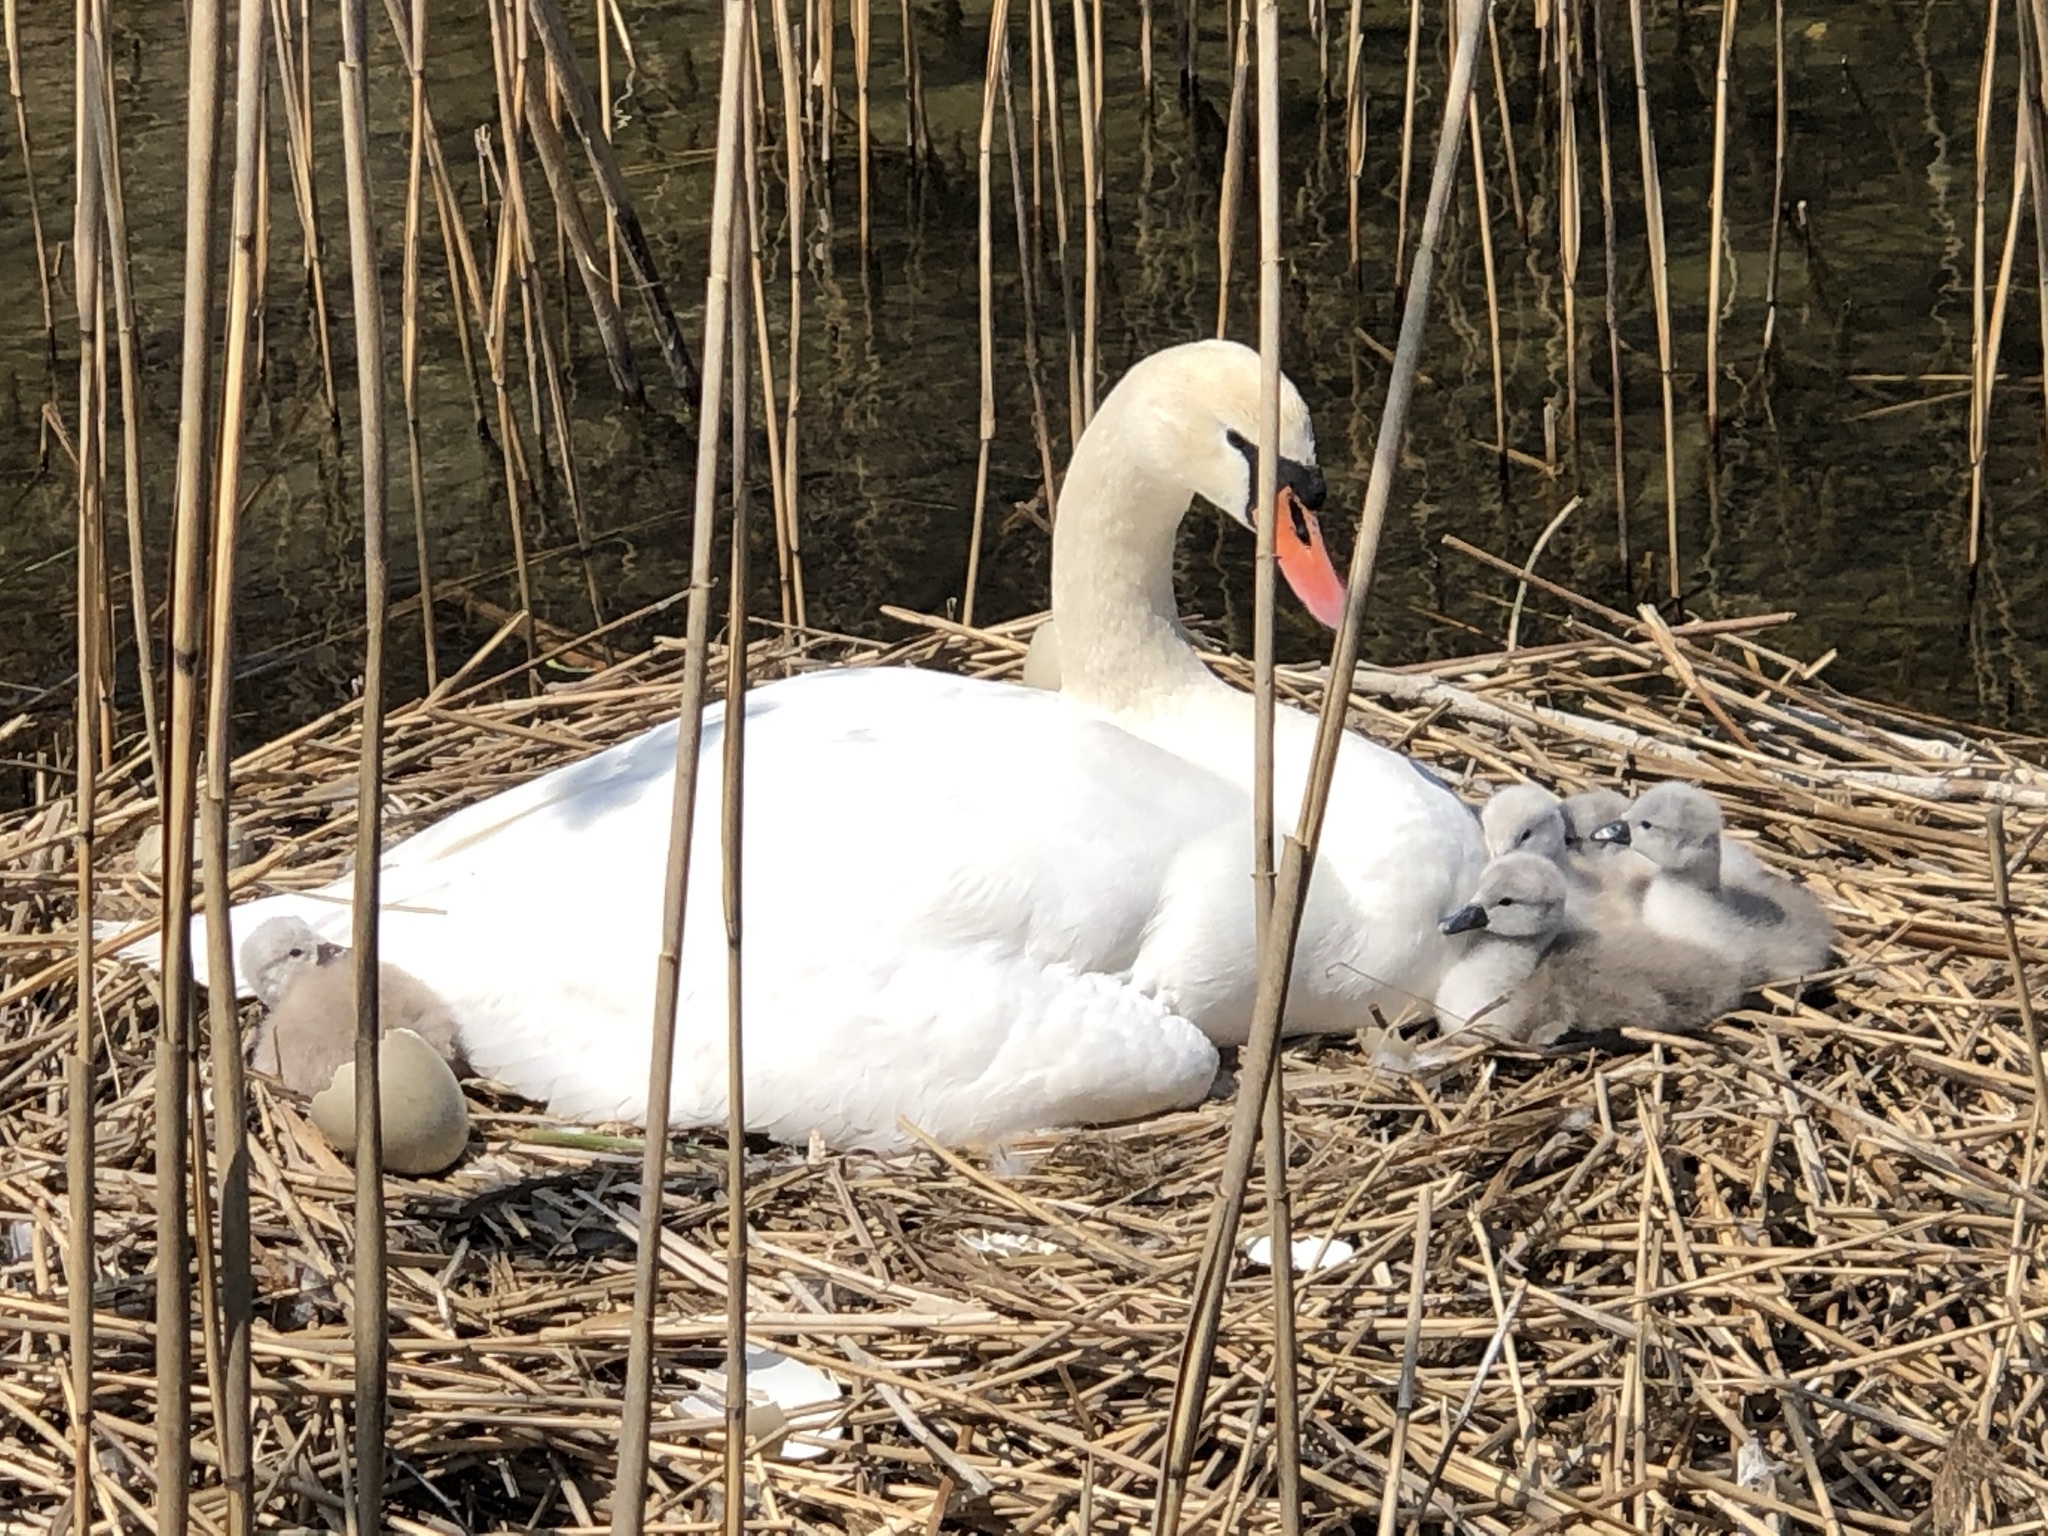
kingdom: Animalia
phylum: Chordata
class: Aves
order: Anseriformes
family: Anatidae
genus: Cygnus
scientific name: Cygnus olor
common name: Mute swan
